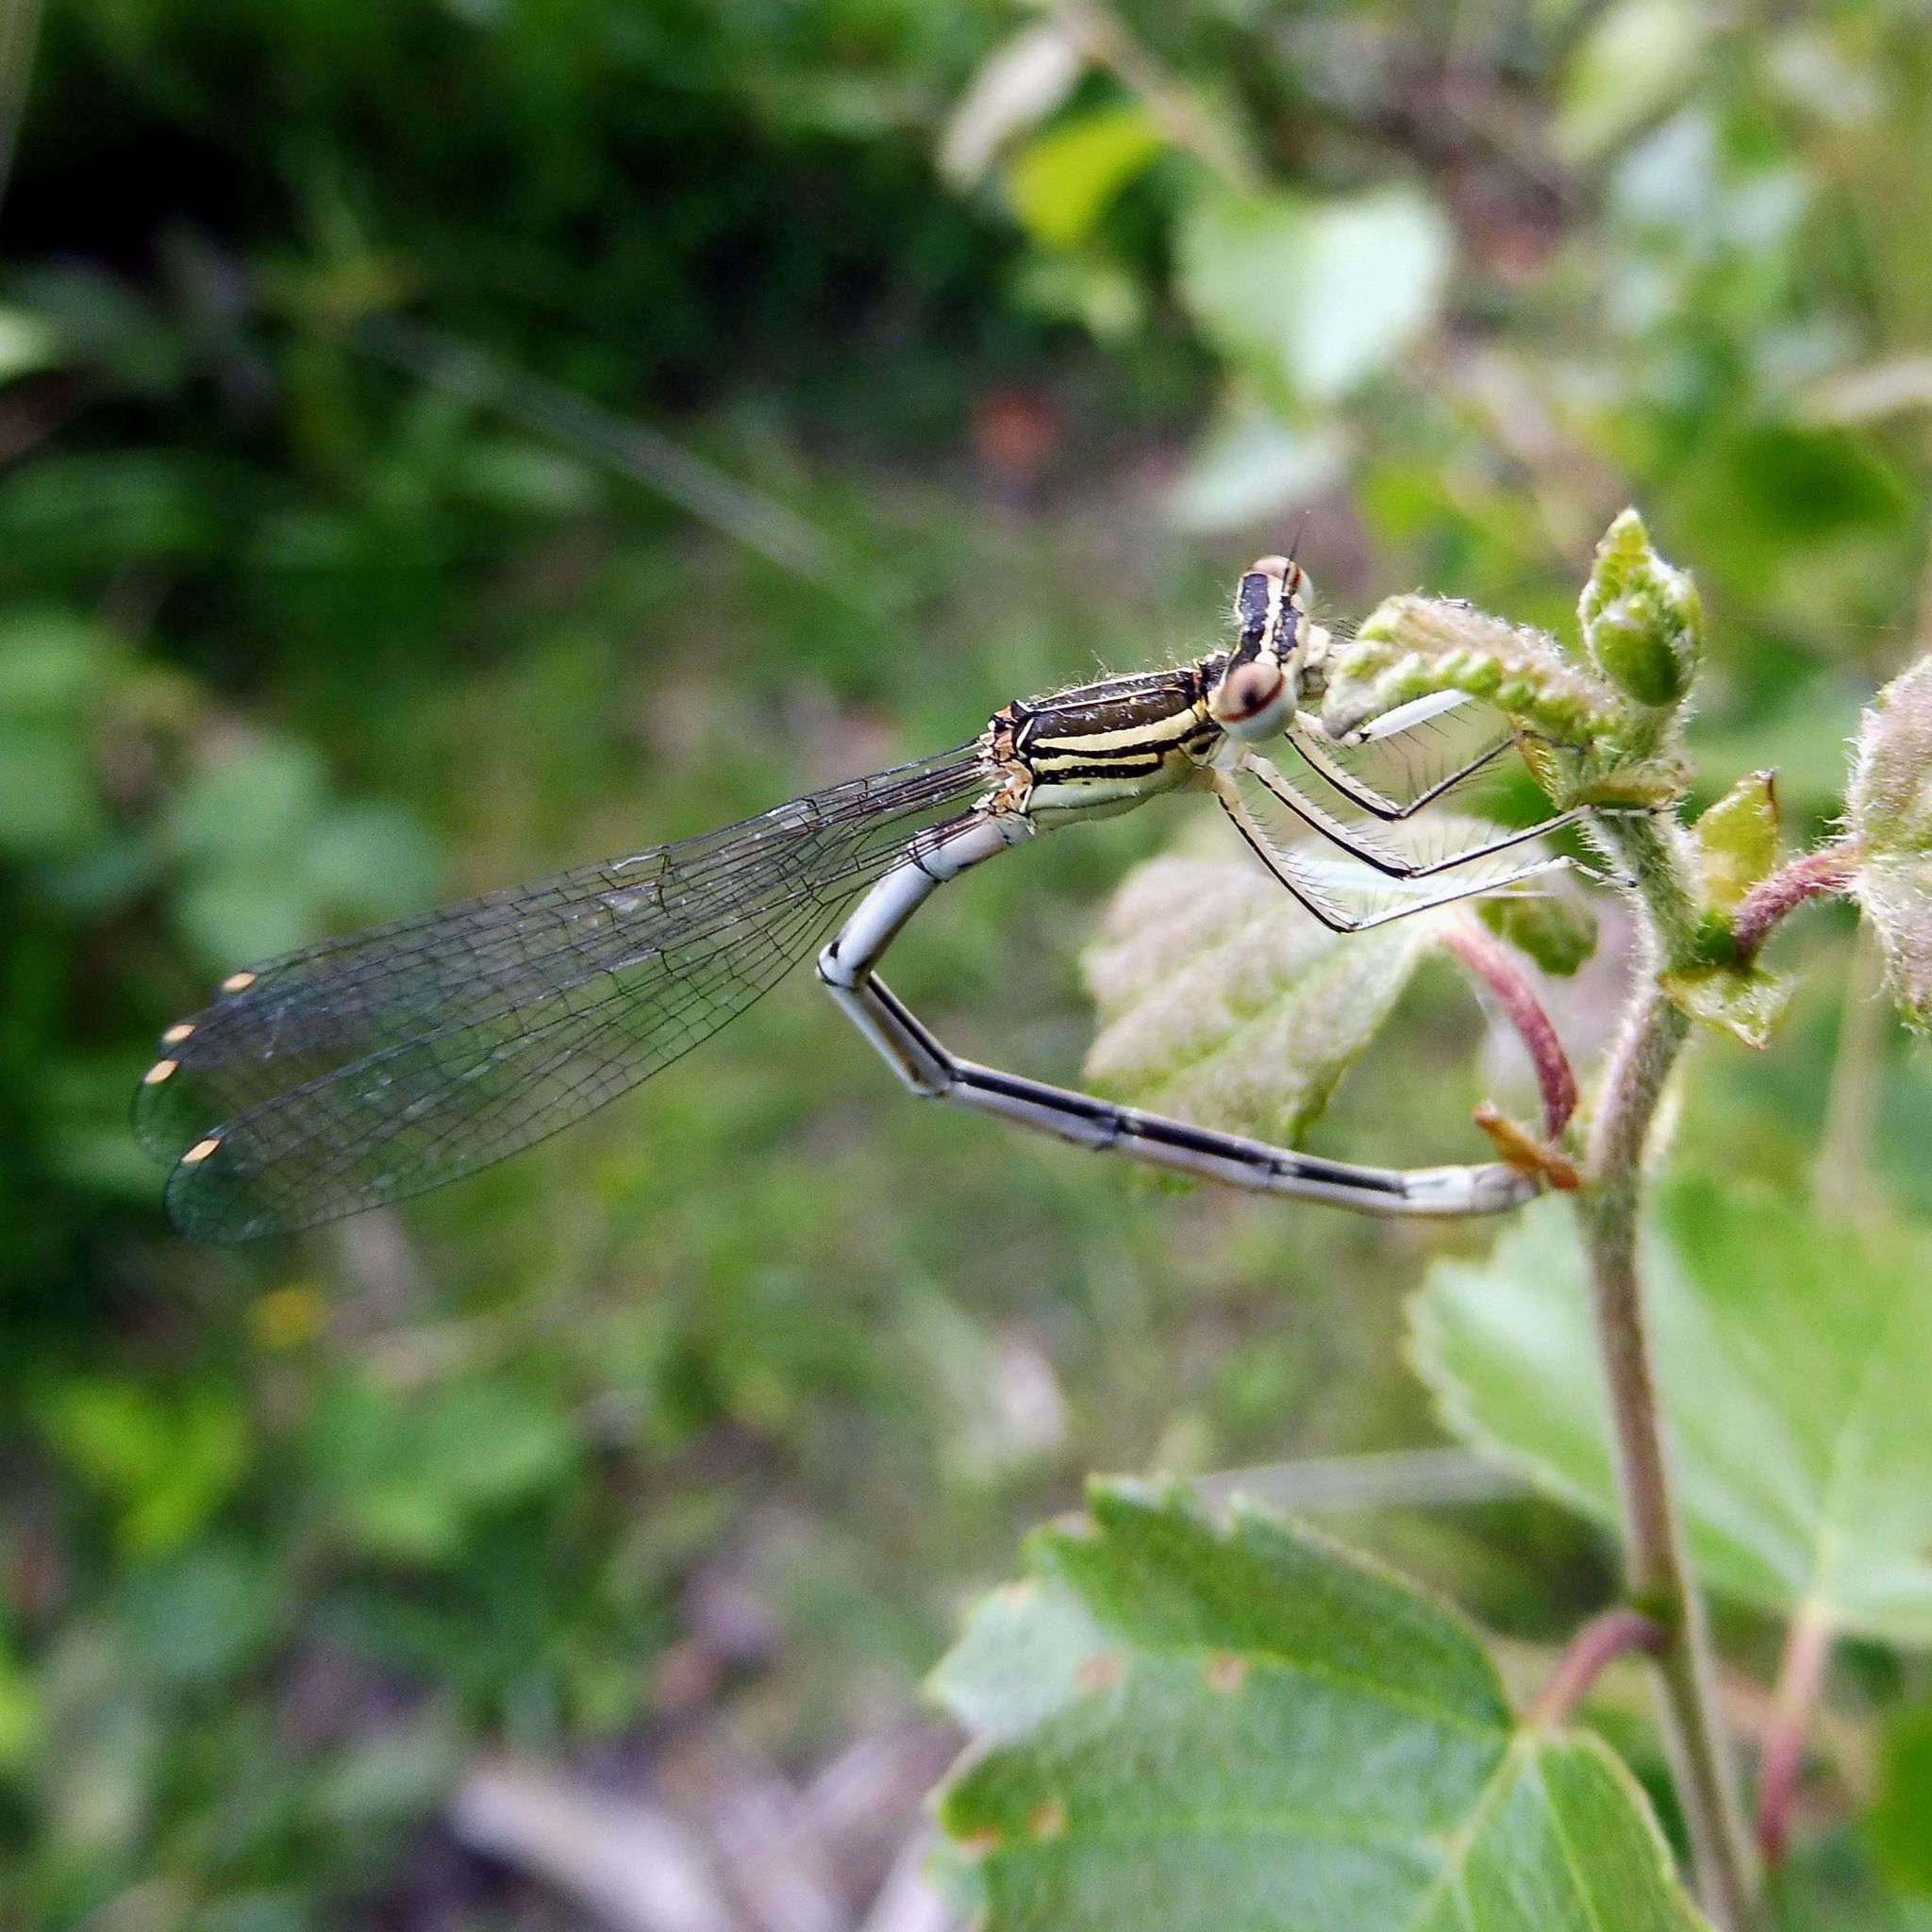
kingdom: Animalia
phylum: Arthropoda
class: Insecta
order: Odonata
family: Platycnemididae
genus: Platycnemis
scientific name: Platycnemis pennipes
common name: White-legged damselfly
